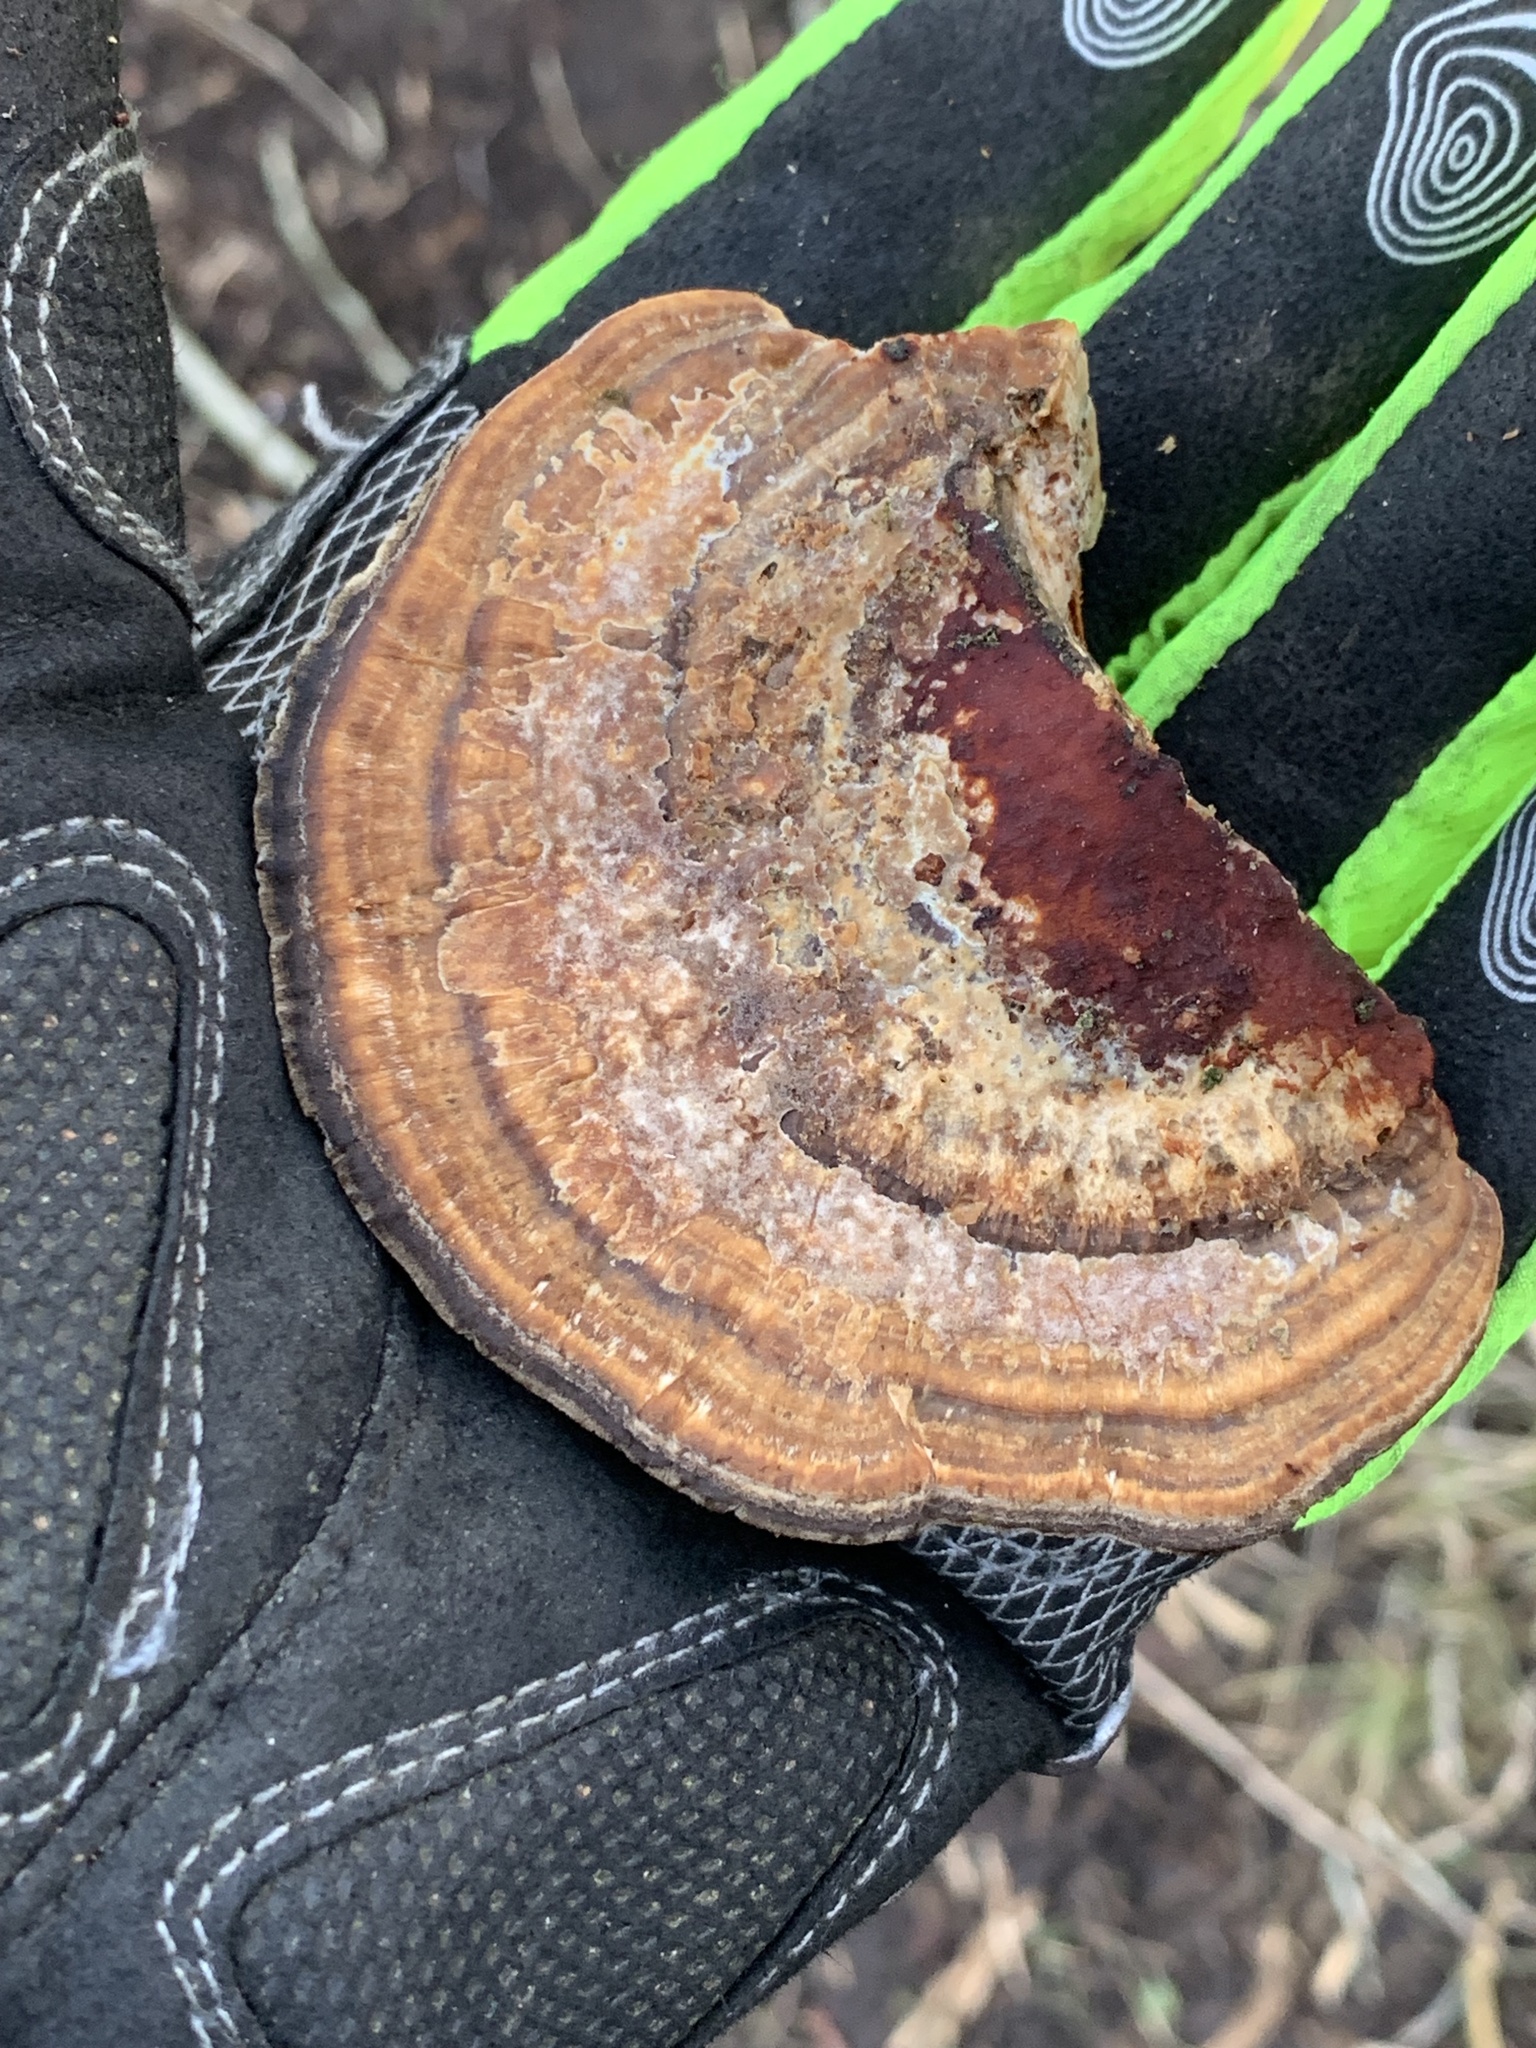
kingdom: Fungi
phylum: Basidiomycota
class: Agaricomycetes
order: Polyporales
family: Polyporaceae
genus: Daedaleopsis
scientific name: Daedaleopsis confragosa
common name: Blushing bracket
